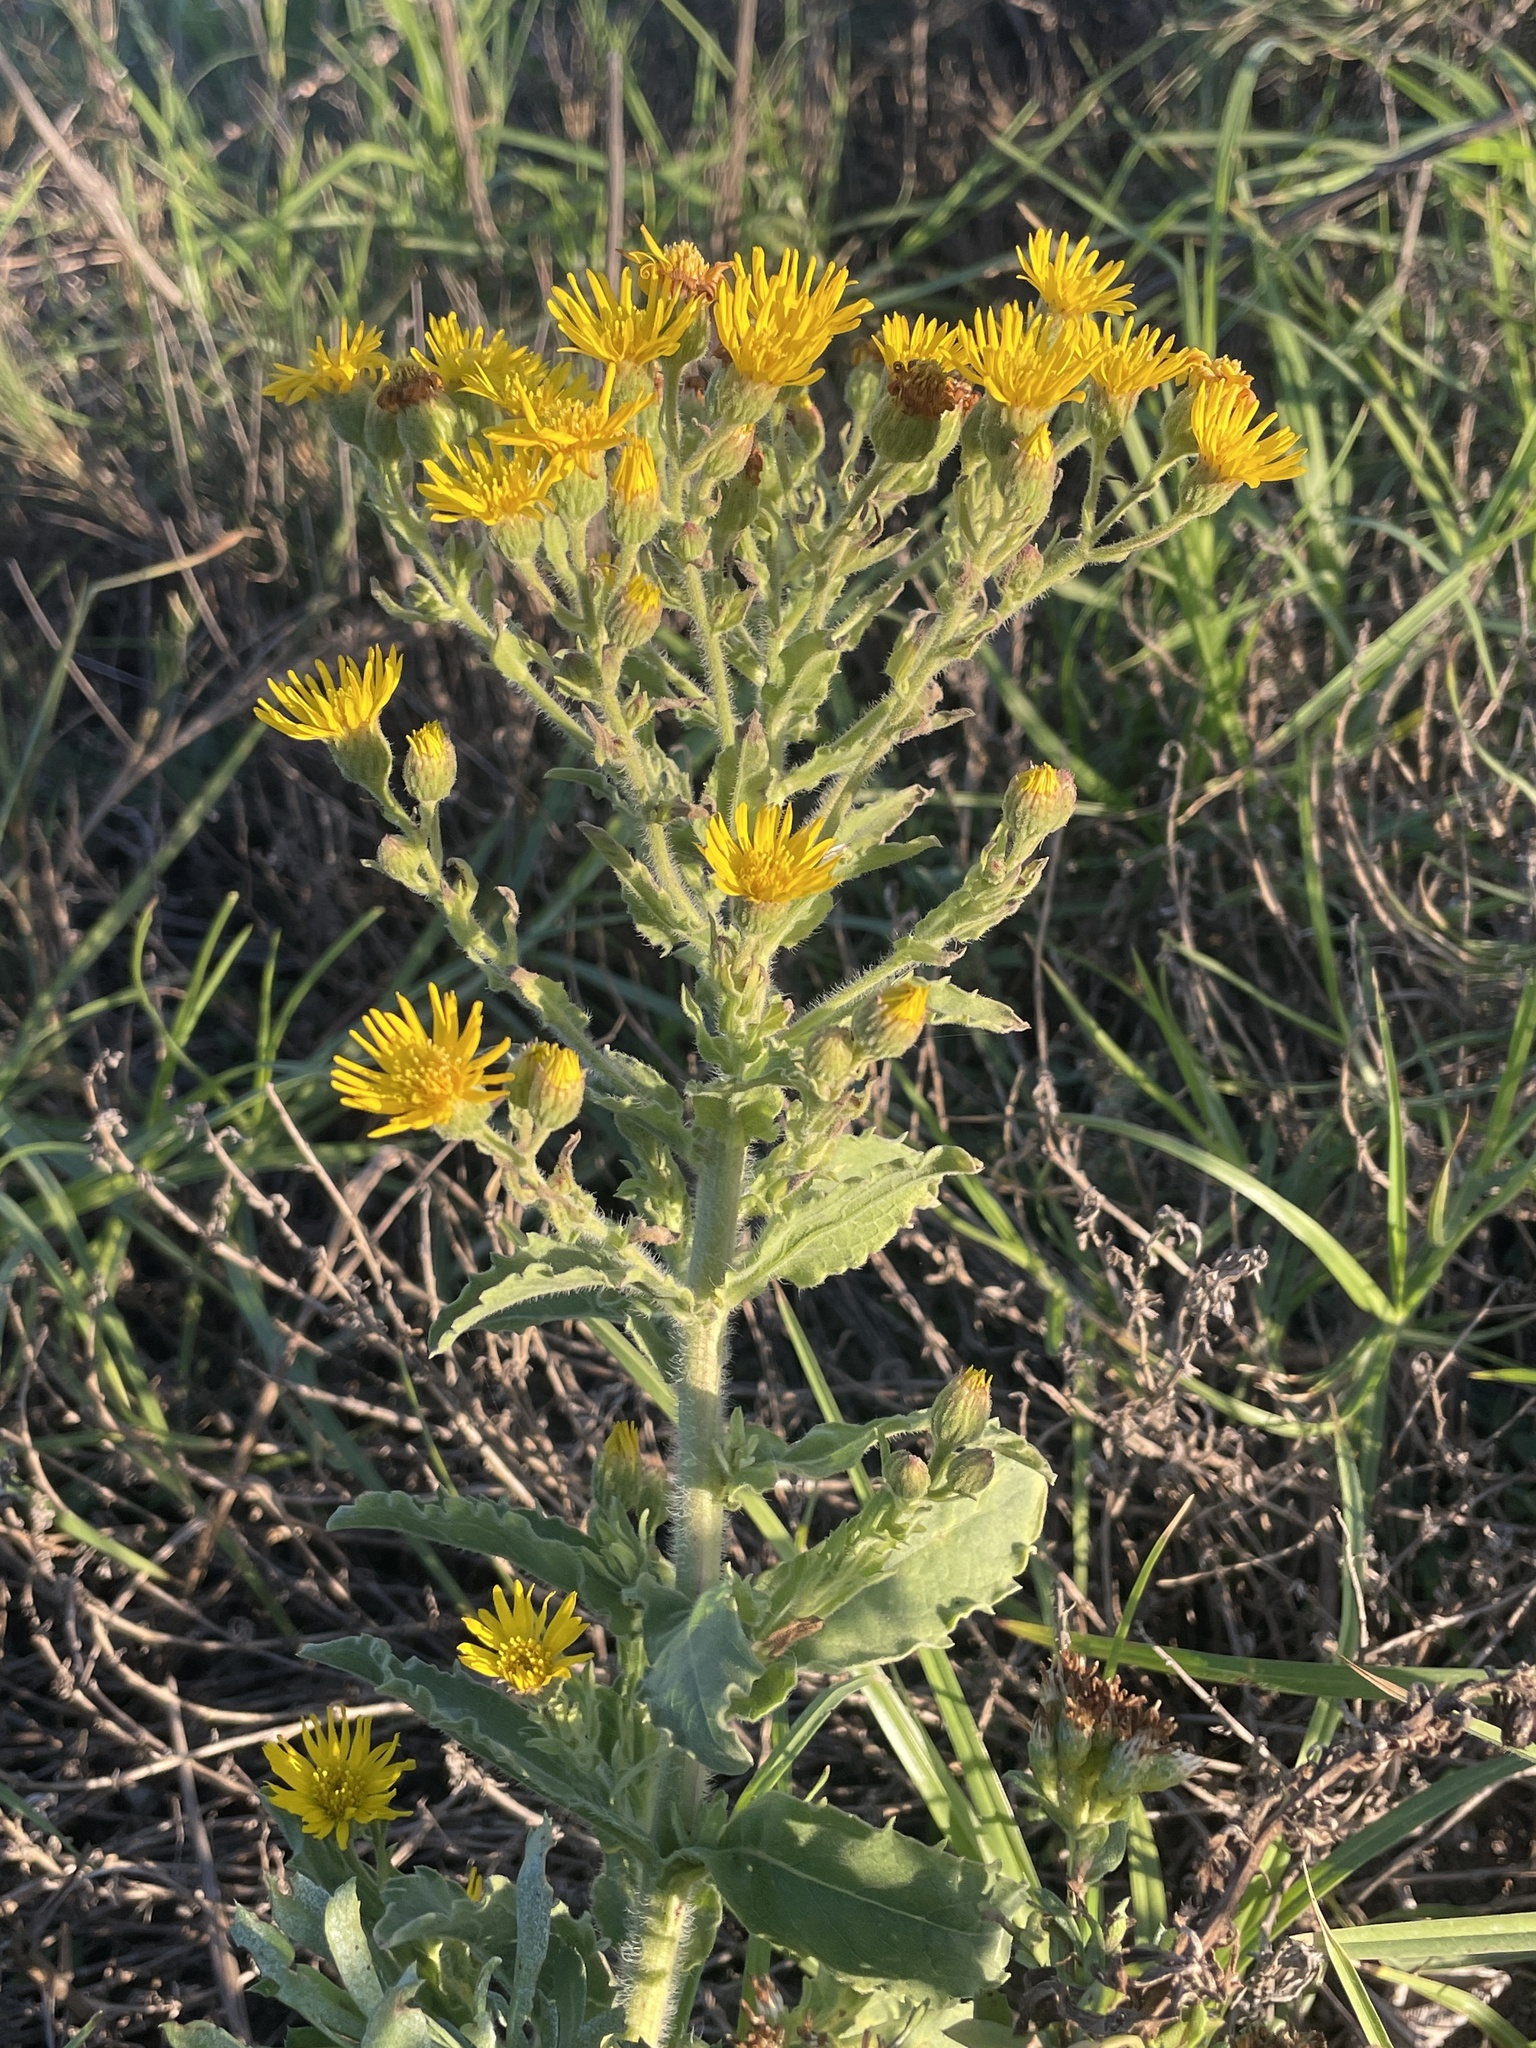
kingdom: Plantae
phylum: Tracheophyta
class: Magnoliopsida
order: Asterales
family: Asteraceae
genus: Heterotheca
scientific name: Heterotheca grandiflora
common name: Telegraphweed
